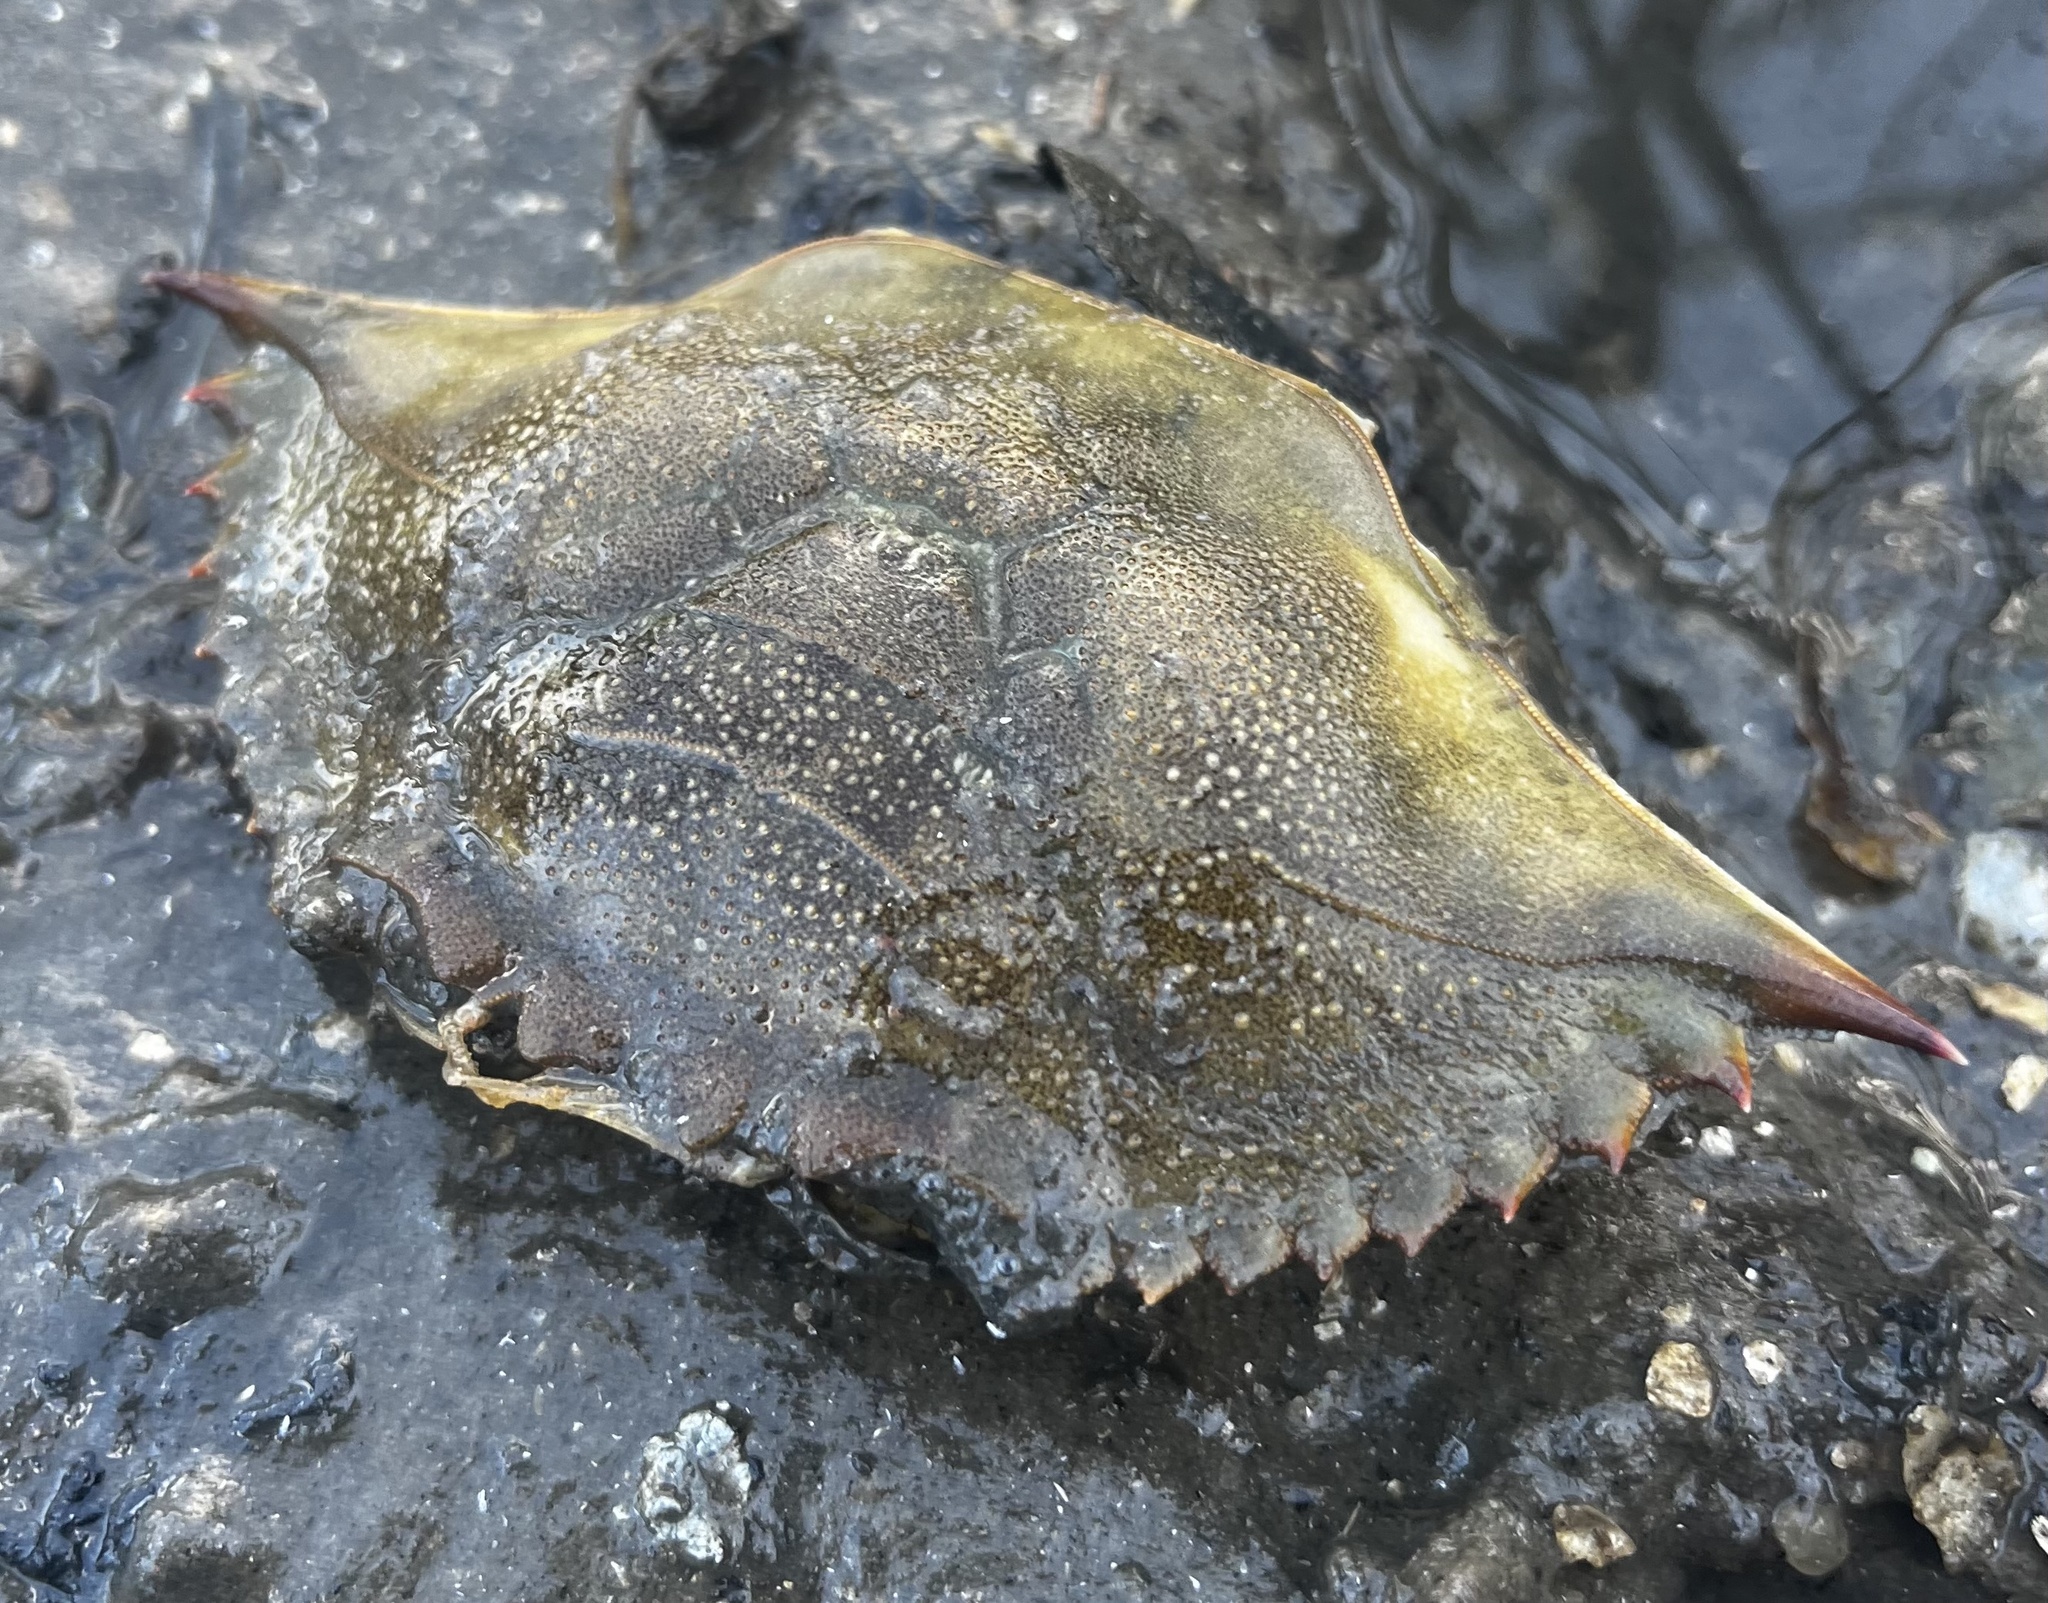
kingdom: Animalia
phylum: Arthropoda
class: Malacostraca
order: Decapoda
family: Portunidae
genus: Callinectes
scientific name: Callinectes sapidus
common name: Blue crab
